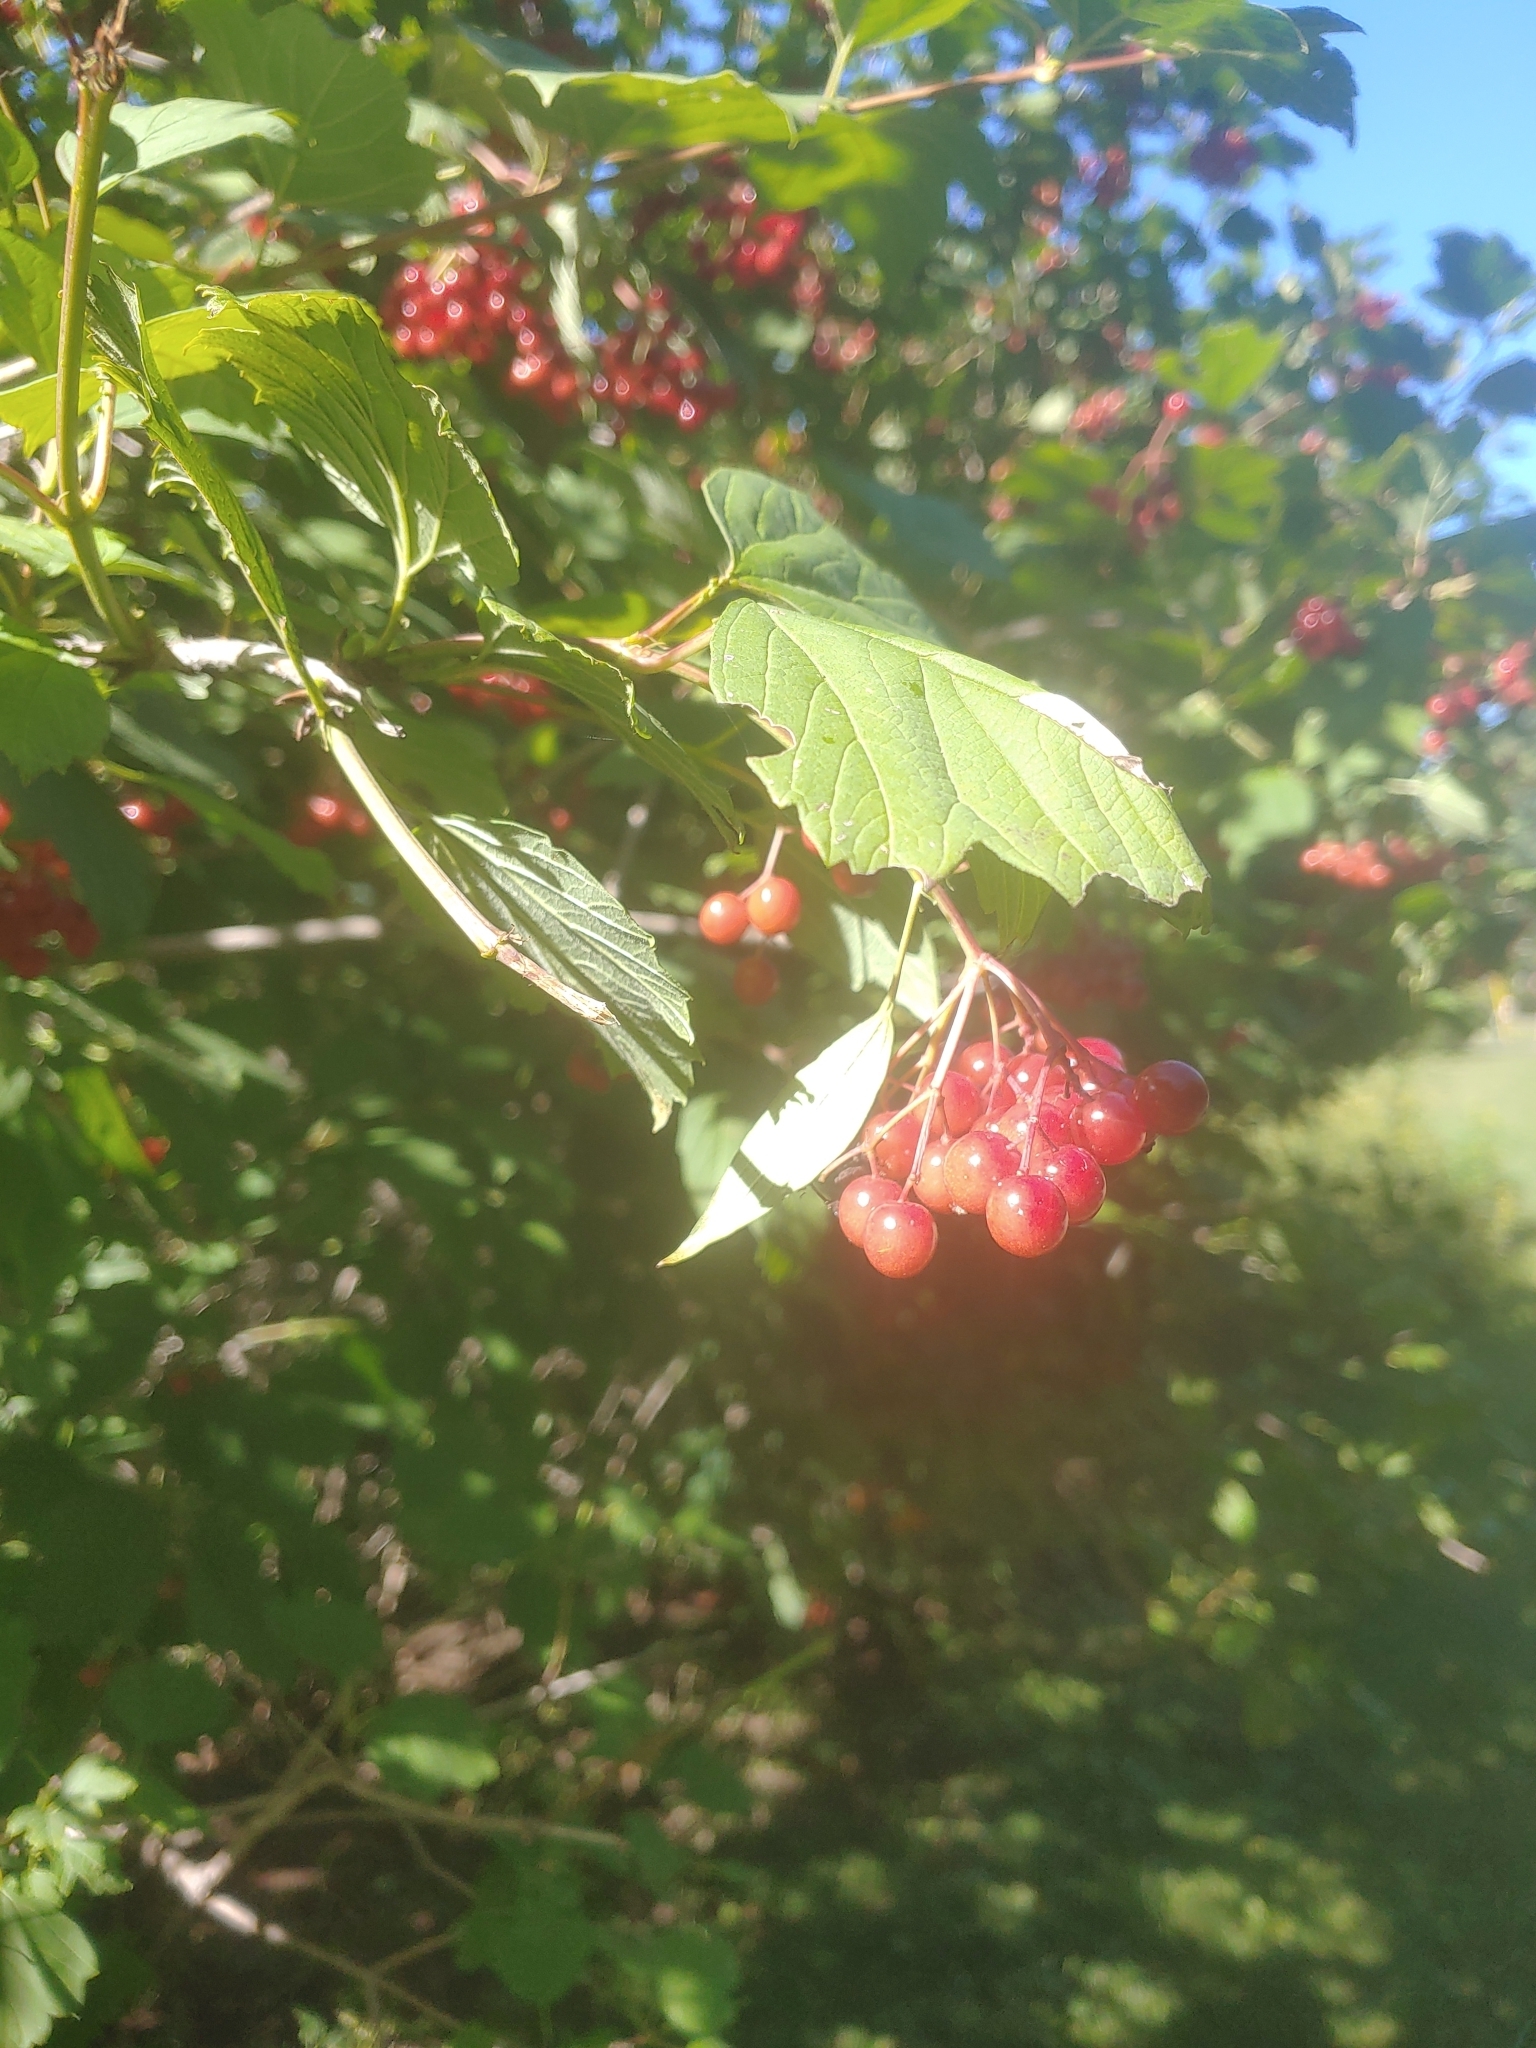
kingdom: Plantae
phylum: Tracheophyta
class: Magnoliopsida
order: Dipsacales
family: Viburnaceae
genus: Viburnum
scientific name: Viburnum opulus
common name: Guelder-rose
